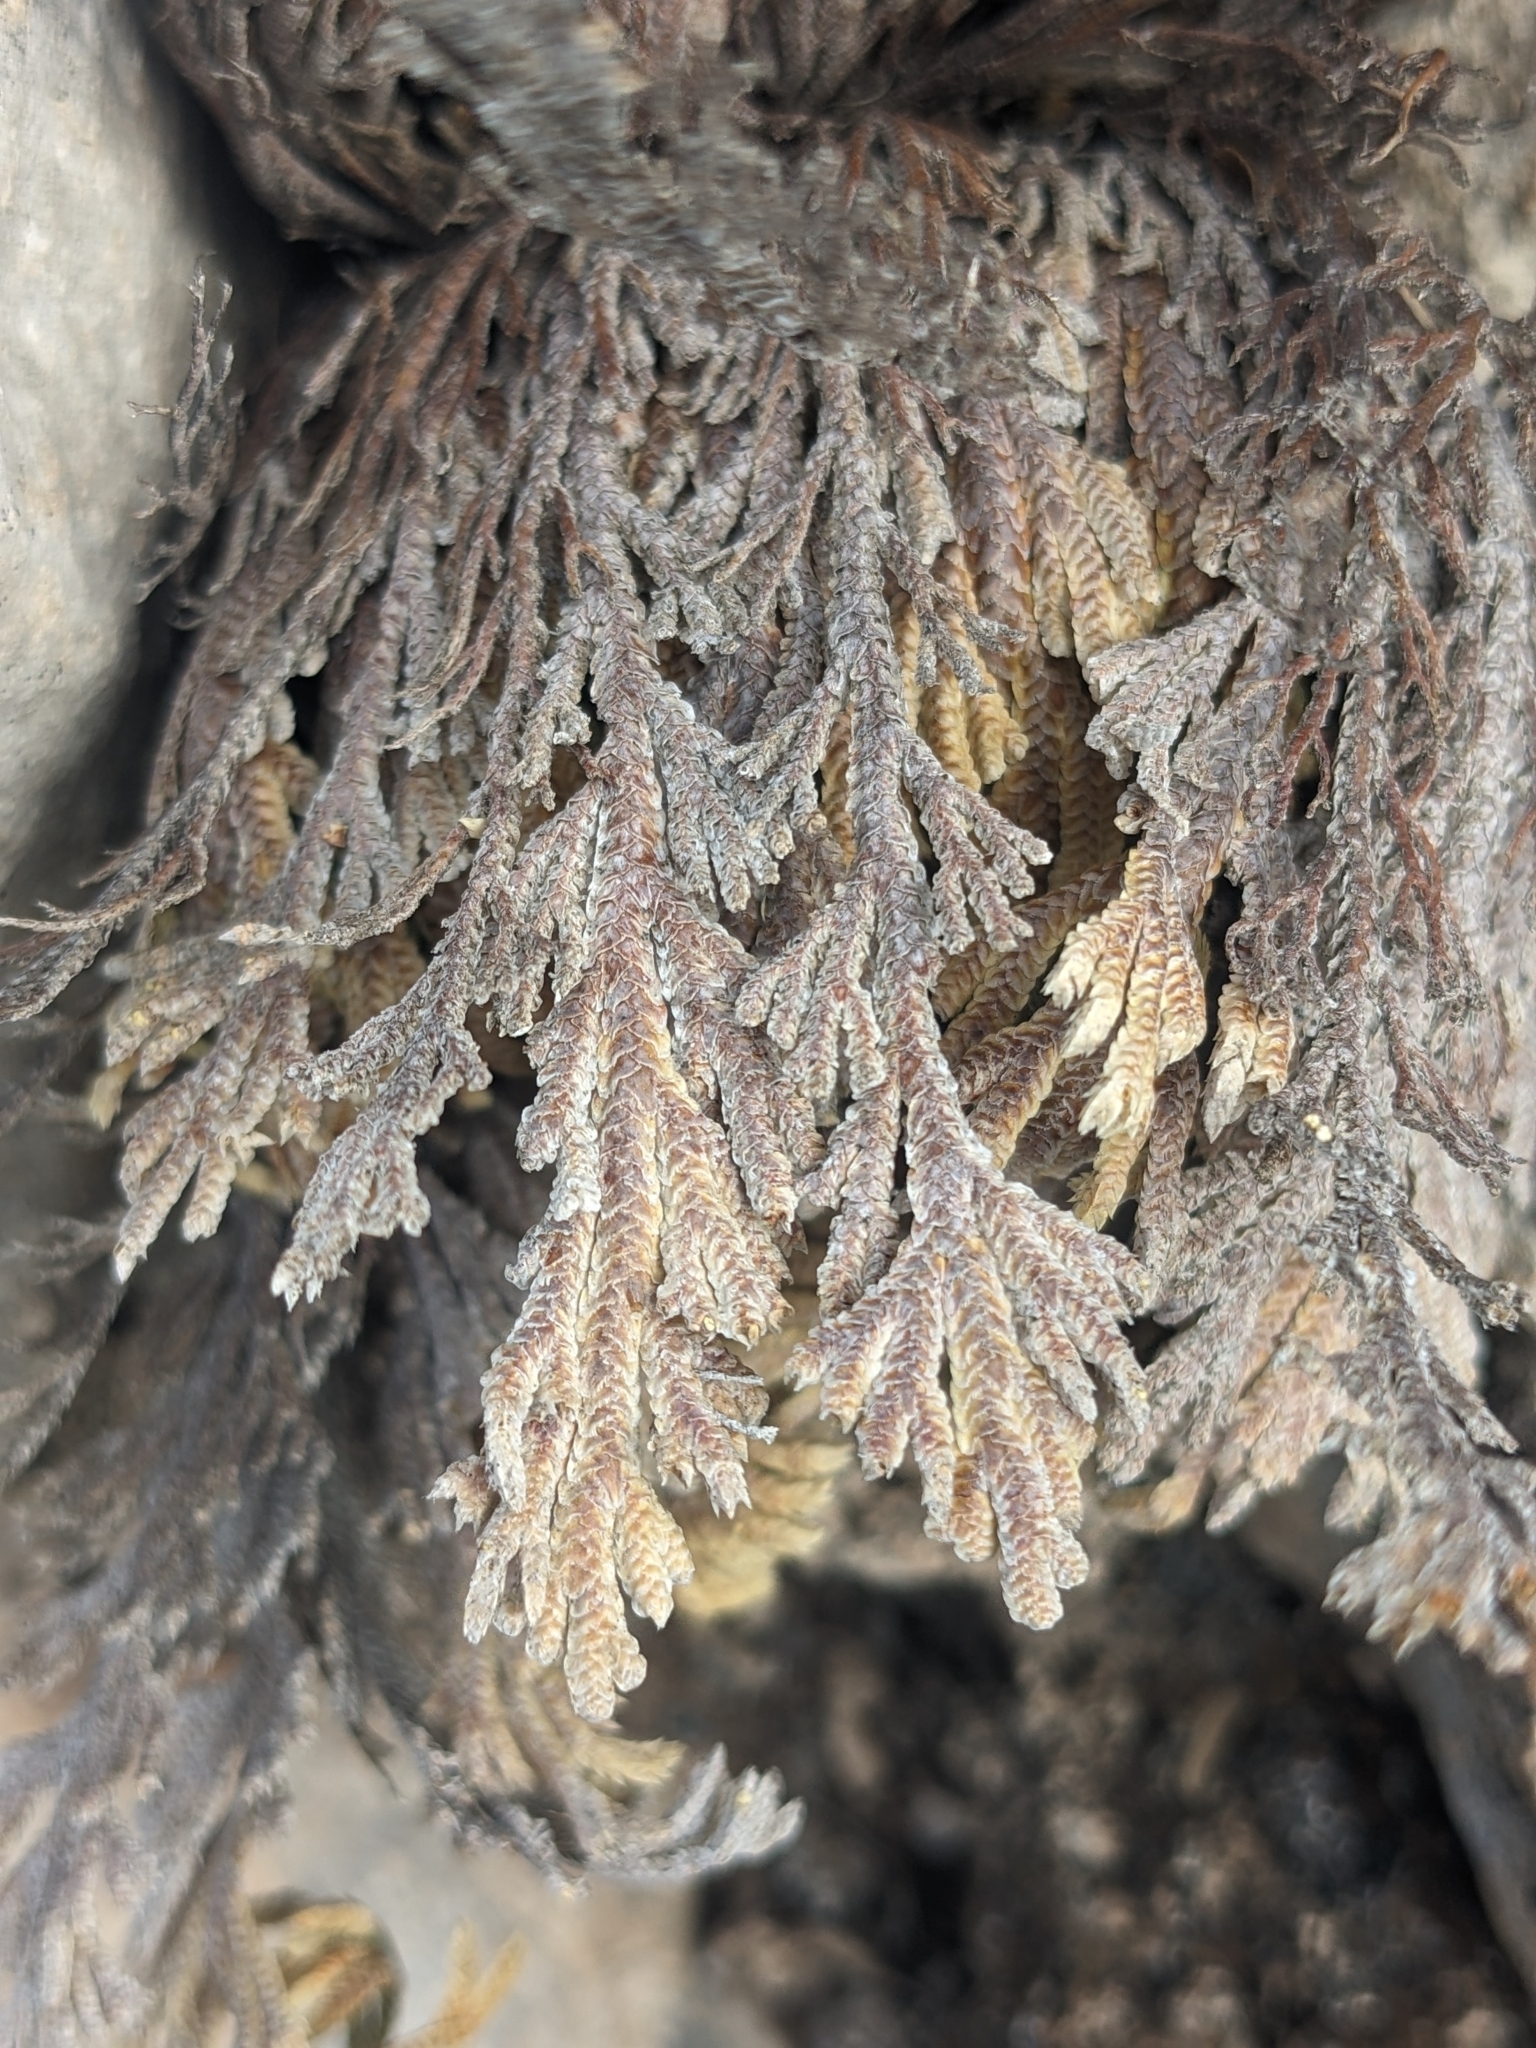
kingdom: Plantae
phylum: Tracheophyta
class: Lycopodiopsida
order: Selaginellales
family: Selaginellaceae
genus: Selaginella
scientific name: Selaginella lepidophylla
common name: Rose-of-jericho
